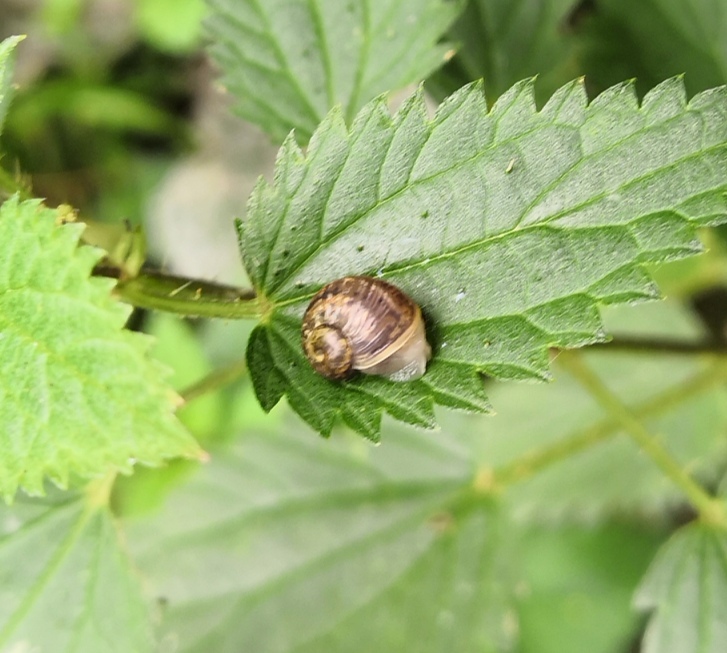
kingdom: Animalia
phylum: Mollusca
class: Gastropoda
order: Stylommatophora
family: Helicidae
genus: Cornu
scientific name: Cornu aspersum
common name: Brown garden snail
